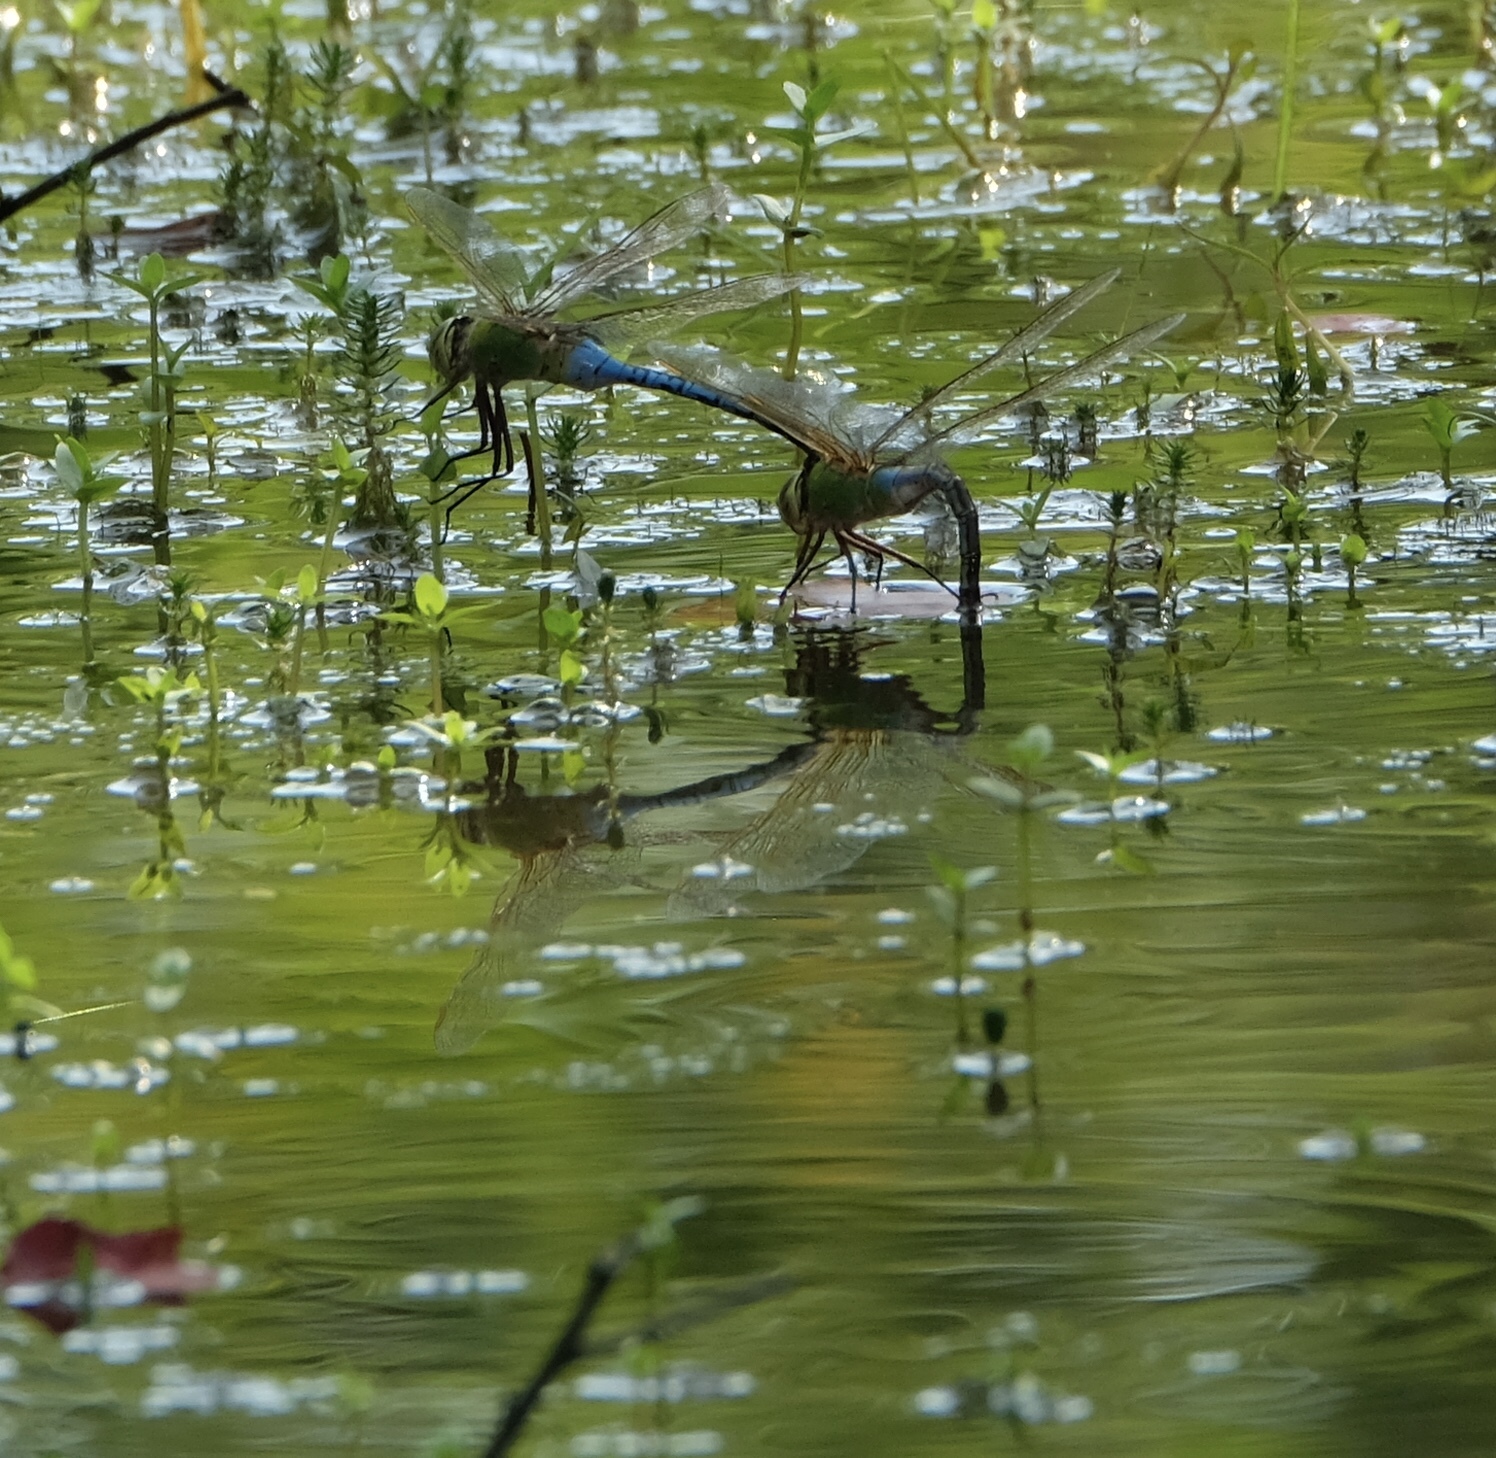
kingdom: Animalia
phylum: Arthropoda
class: Insecta
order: Odonata
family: Aeshnidae
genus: Anax
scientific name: Anax junius
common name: Common green darner
